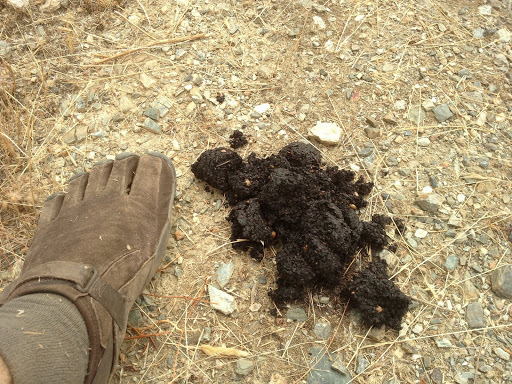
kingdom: Animalia
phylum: Chordata
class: Mammalia
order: Carnivora
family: Ursidae
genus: Ursus
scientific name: Ursus americanus
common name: American black bear
